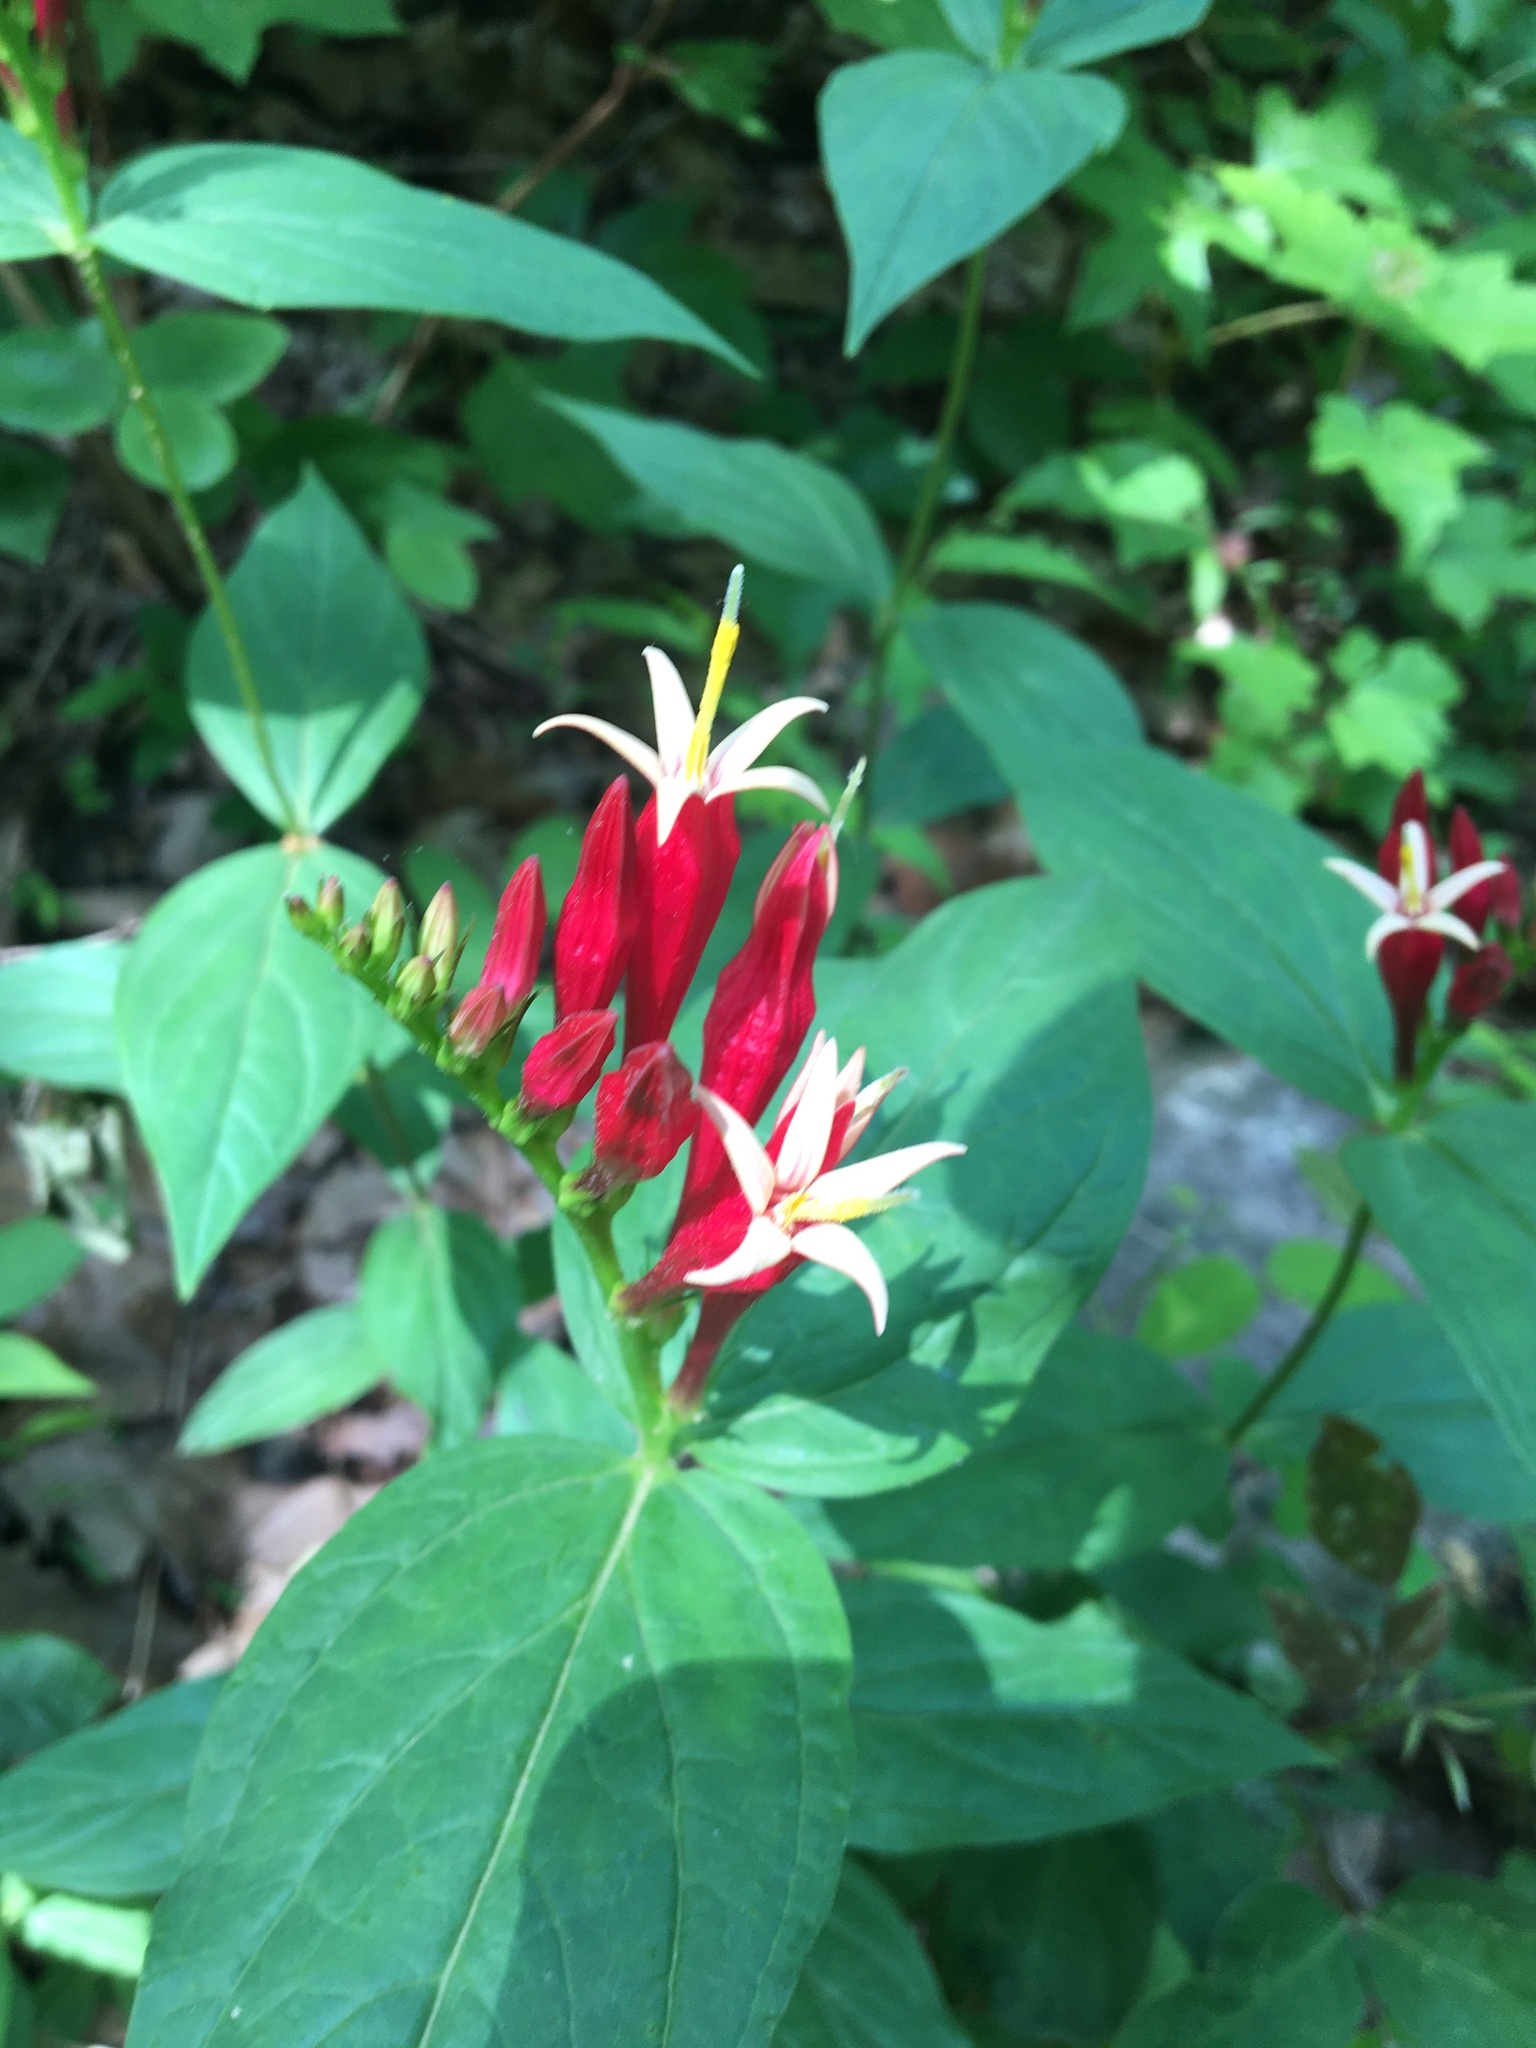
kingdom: Plantae
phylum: Tracheophyta
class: Magnoliopsida
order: Gentianales
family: Loganiaceae
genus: Spigelia
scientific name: Spigelia marilandica
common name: Indian-pink
